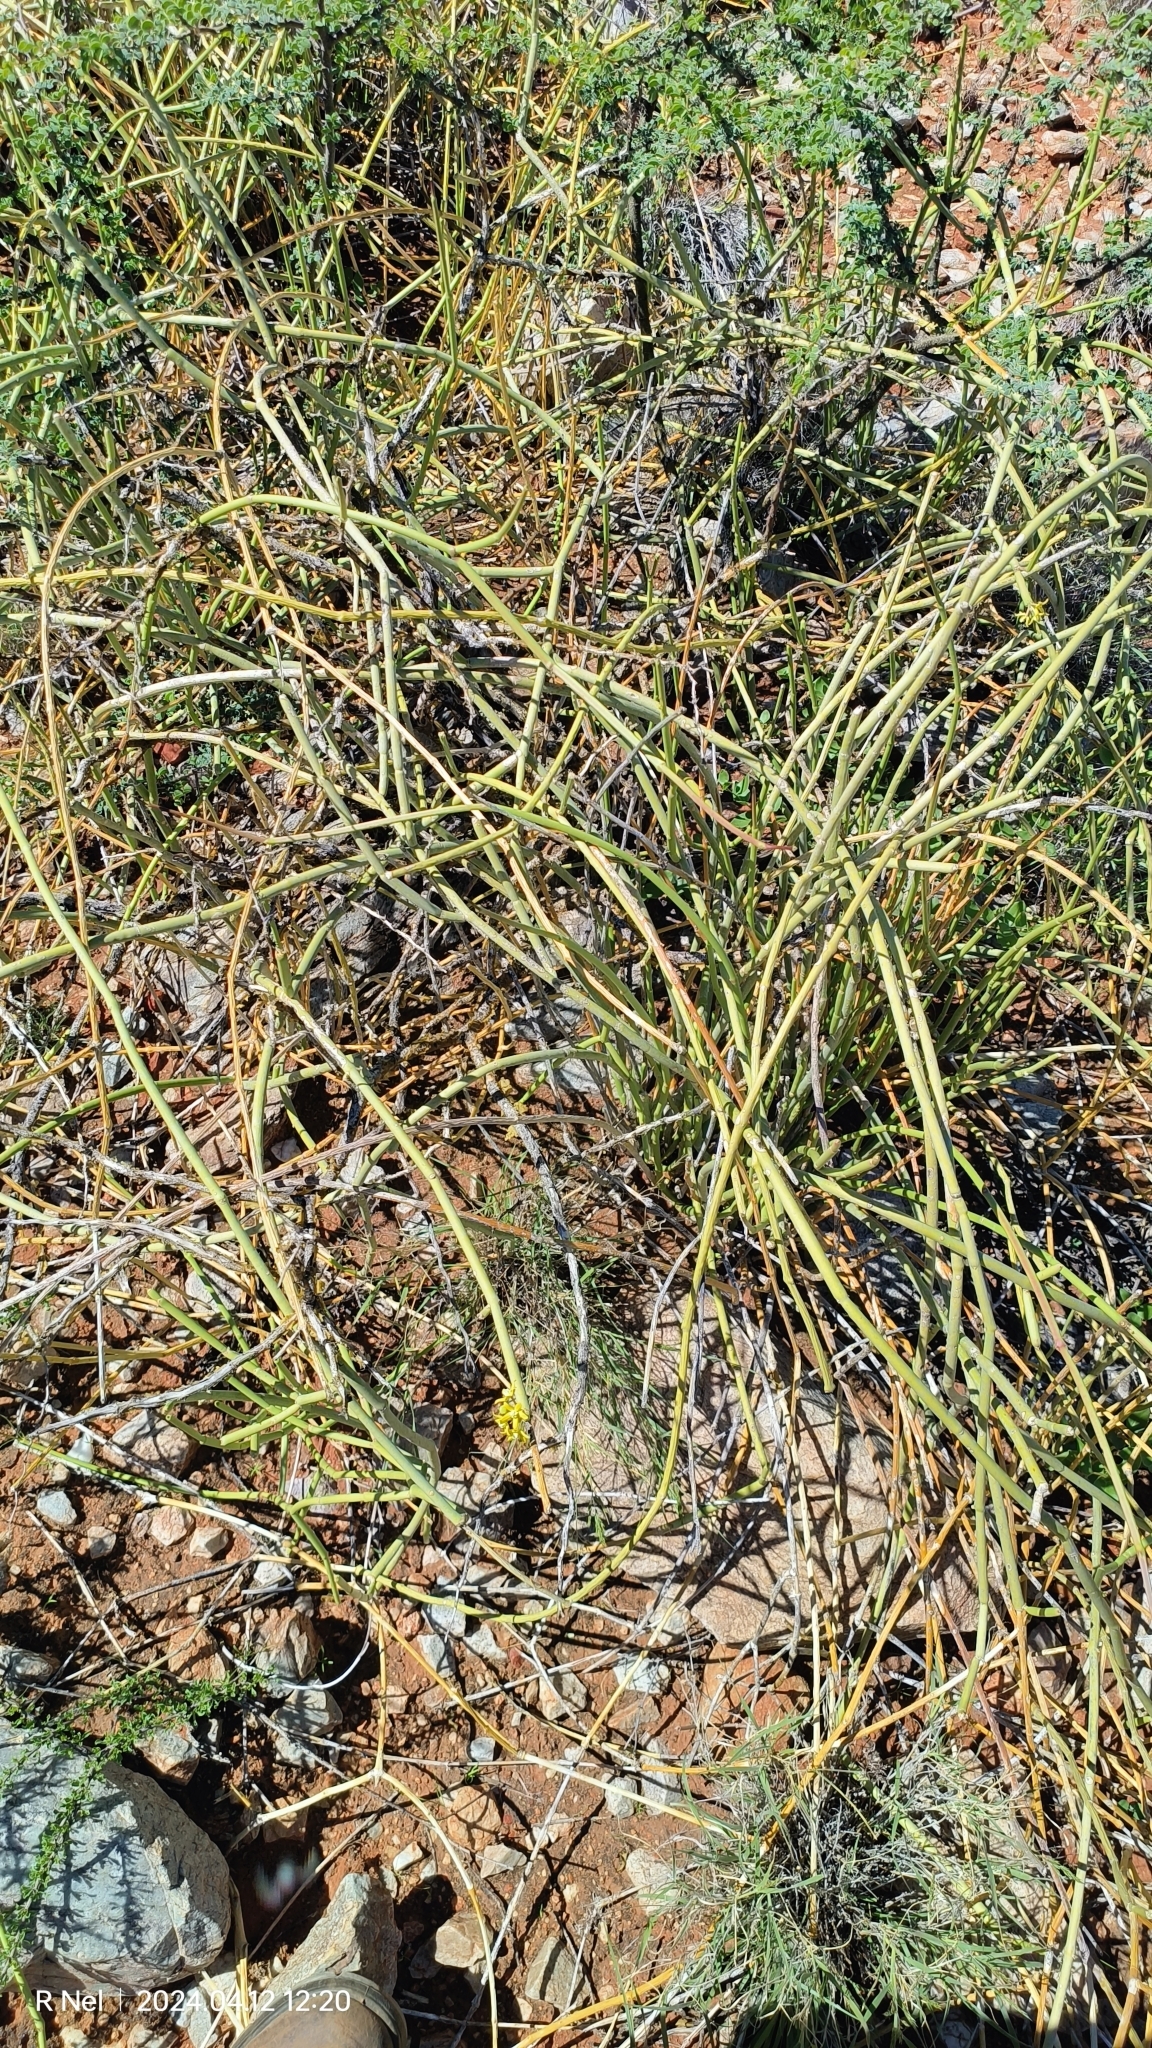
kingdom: Plantae
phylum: Tracheophyta
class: Magnoliopsida
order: Gentianales
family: Apocynaceae
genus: Cynanchum
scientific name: Cynanchum viminale
